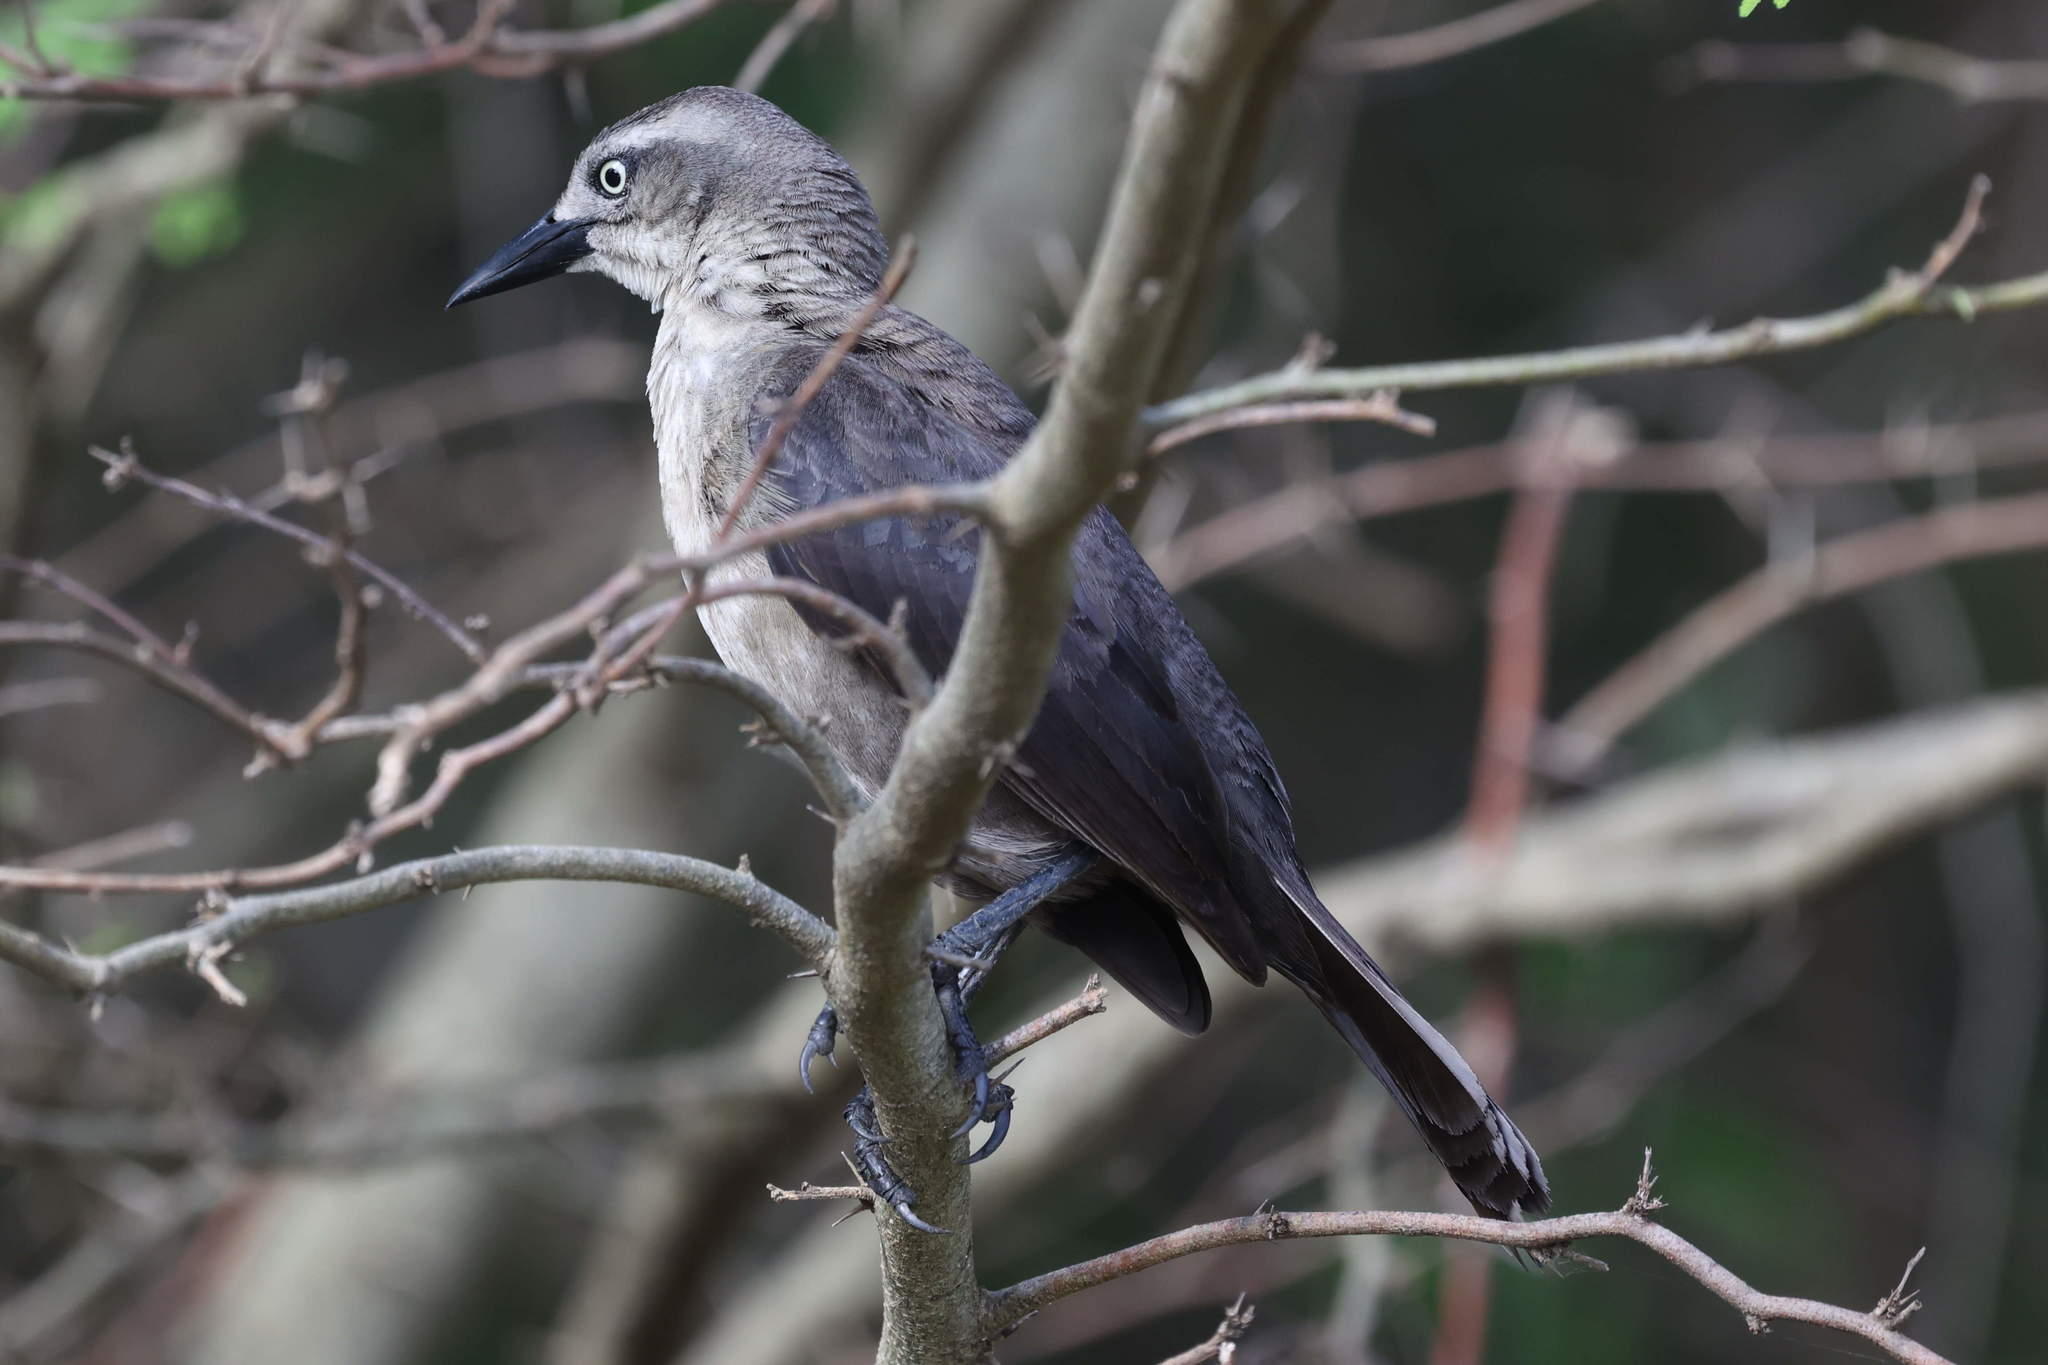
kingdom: Animalia
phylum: Chordata
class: Aves
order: Passeriformes
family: Icteridae
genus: Quiscalus
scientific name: Quiscalus lugubris
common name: Carib grackle
